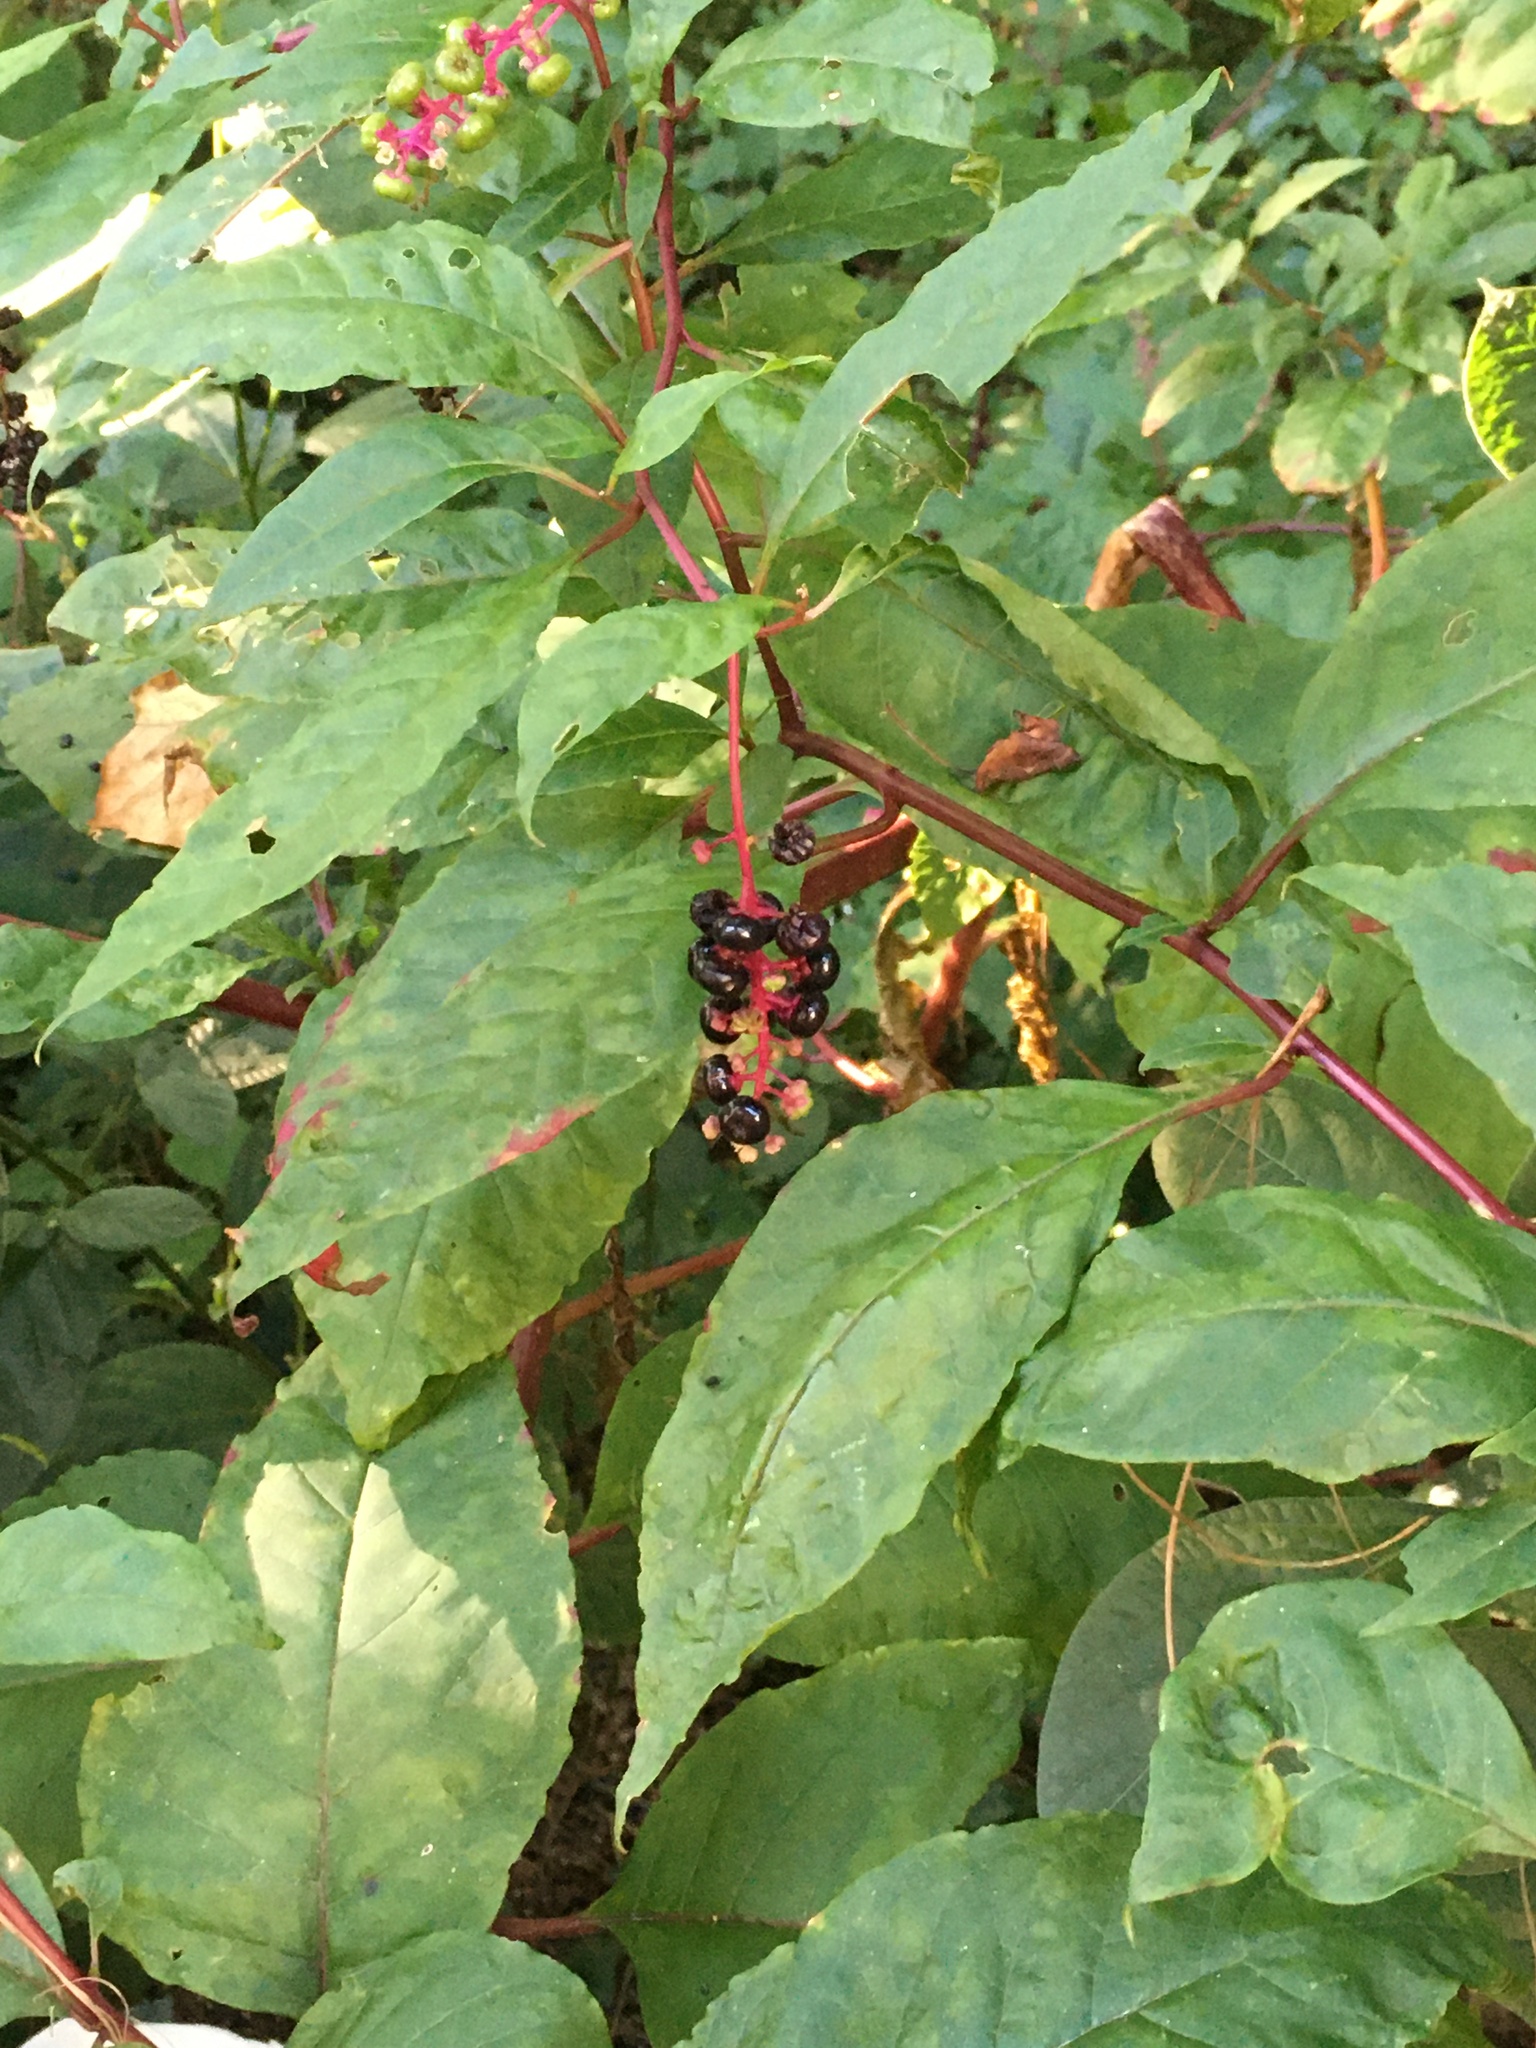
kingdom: Plantae
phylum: Tracheophyta
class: Magnoliopsida
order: Caryophyllales
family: Phytolaccaceae
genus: Phytolacca
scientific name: Phytolacca americana
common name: American pokeweed
